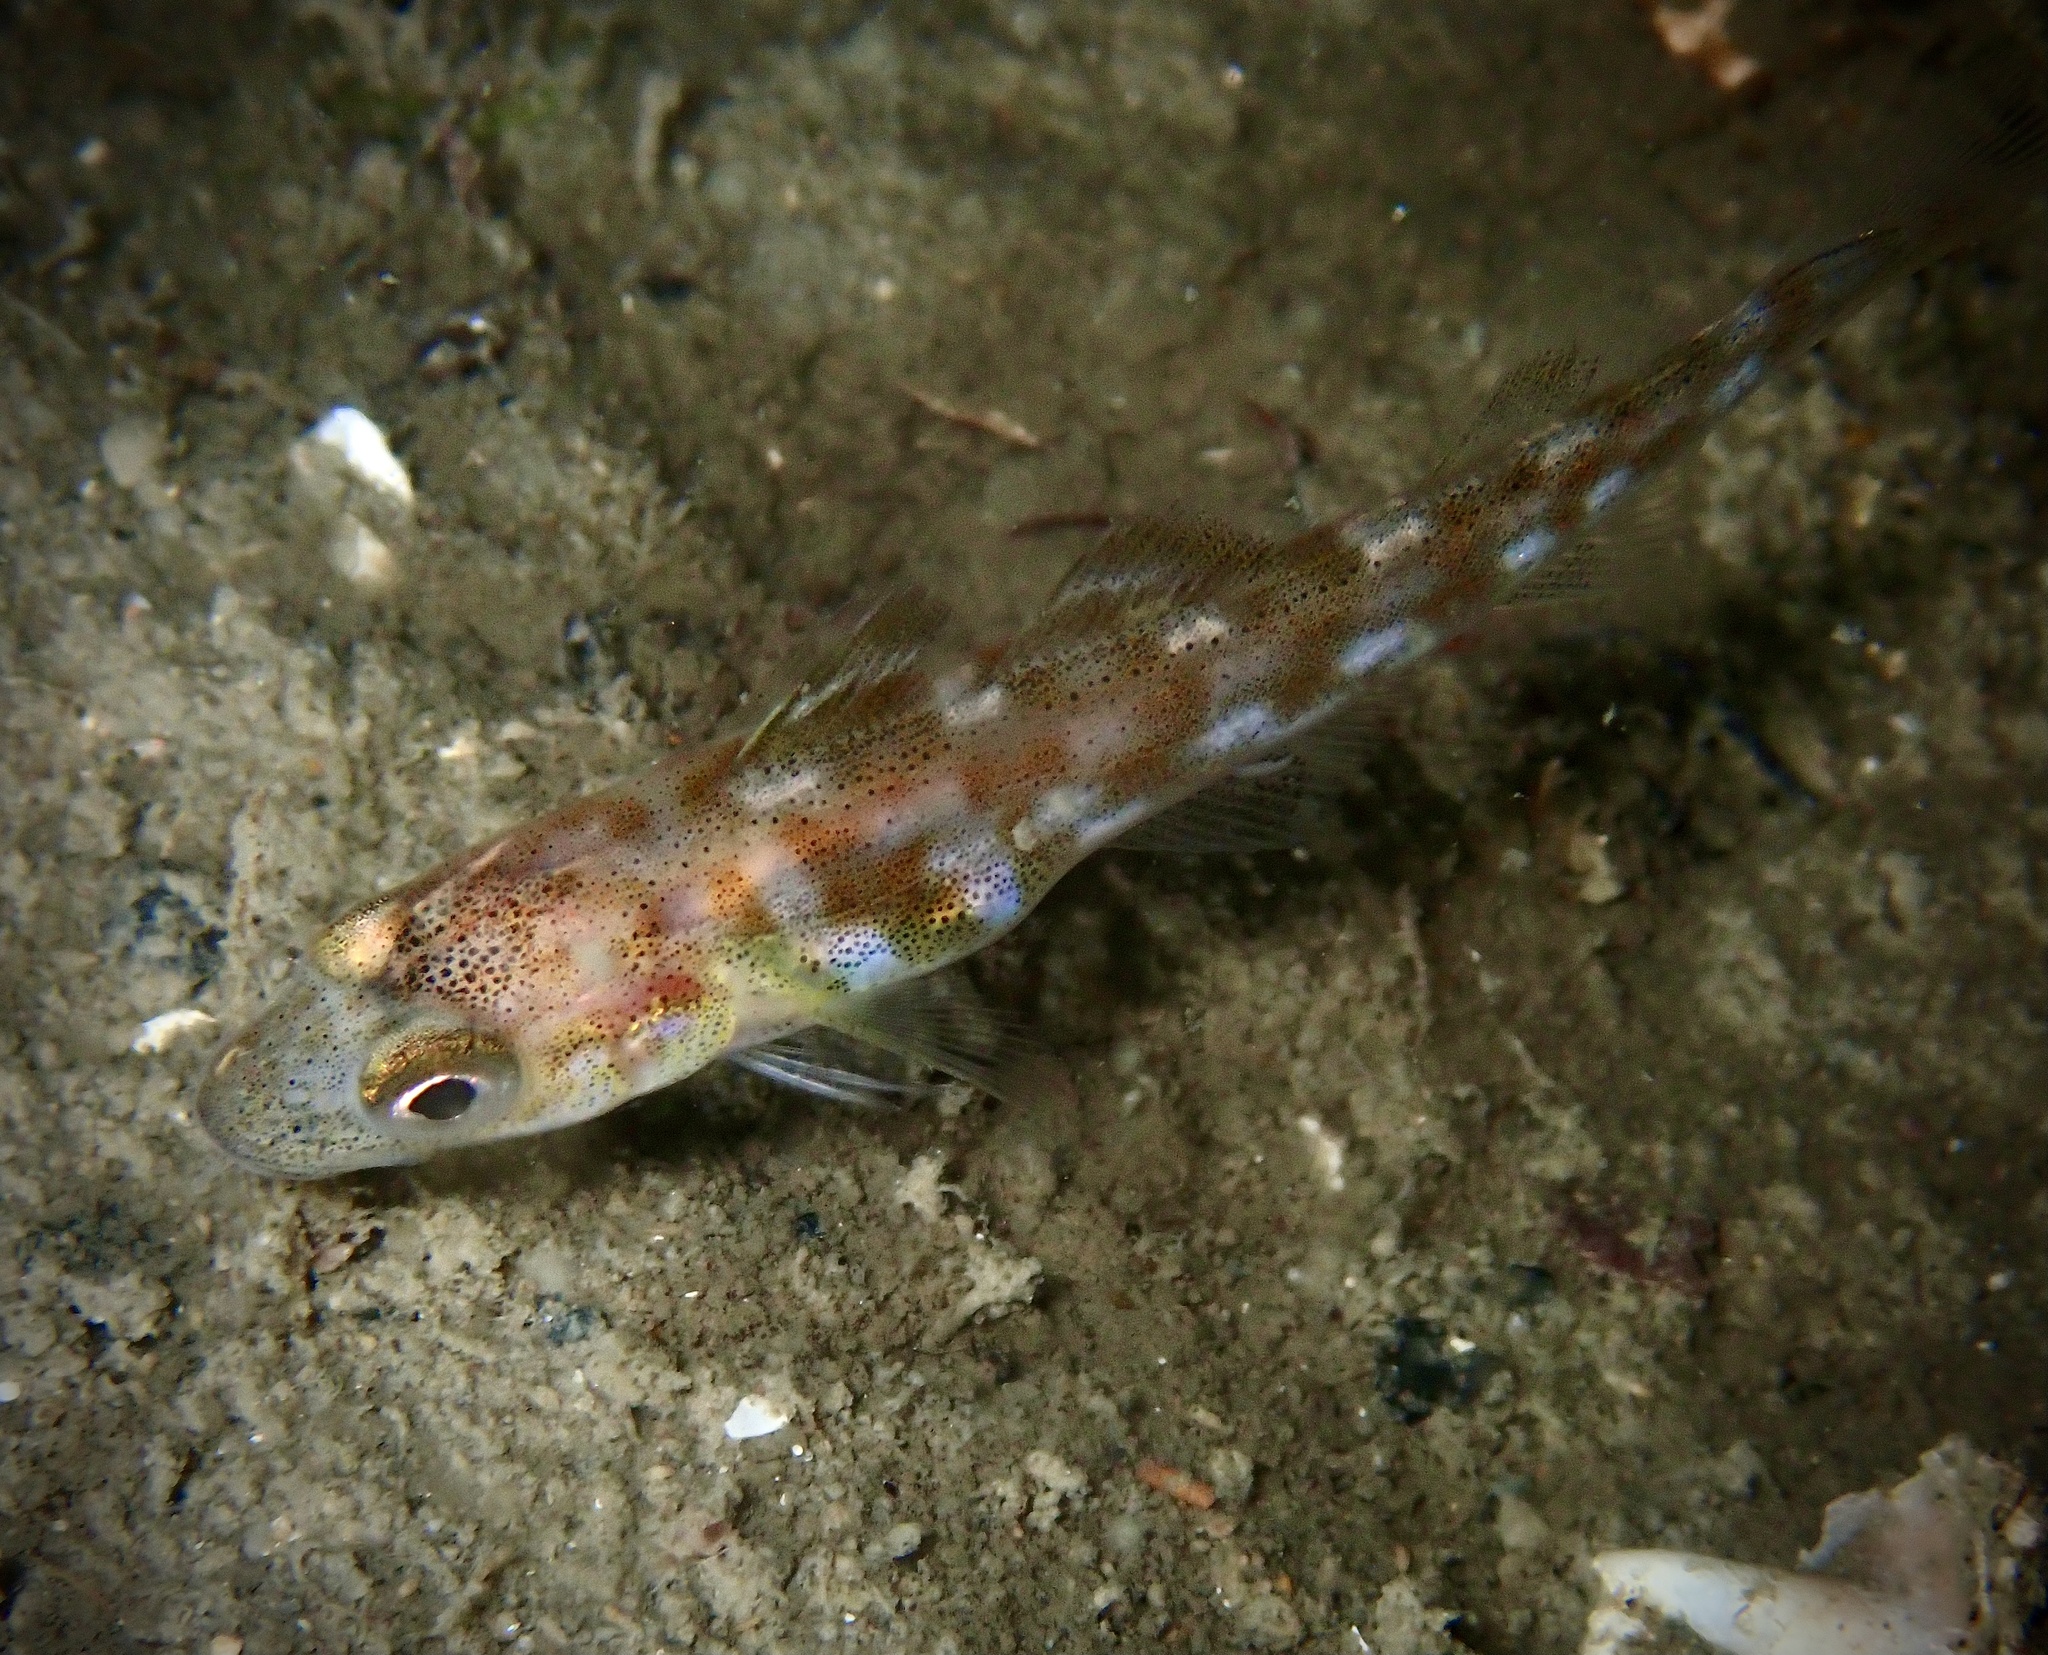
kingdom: Animalia
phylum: Chordata
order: Gadiformes
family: Gadidae
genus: Gadus
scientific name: Gadus morhua
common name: Atlantic cod
